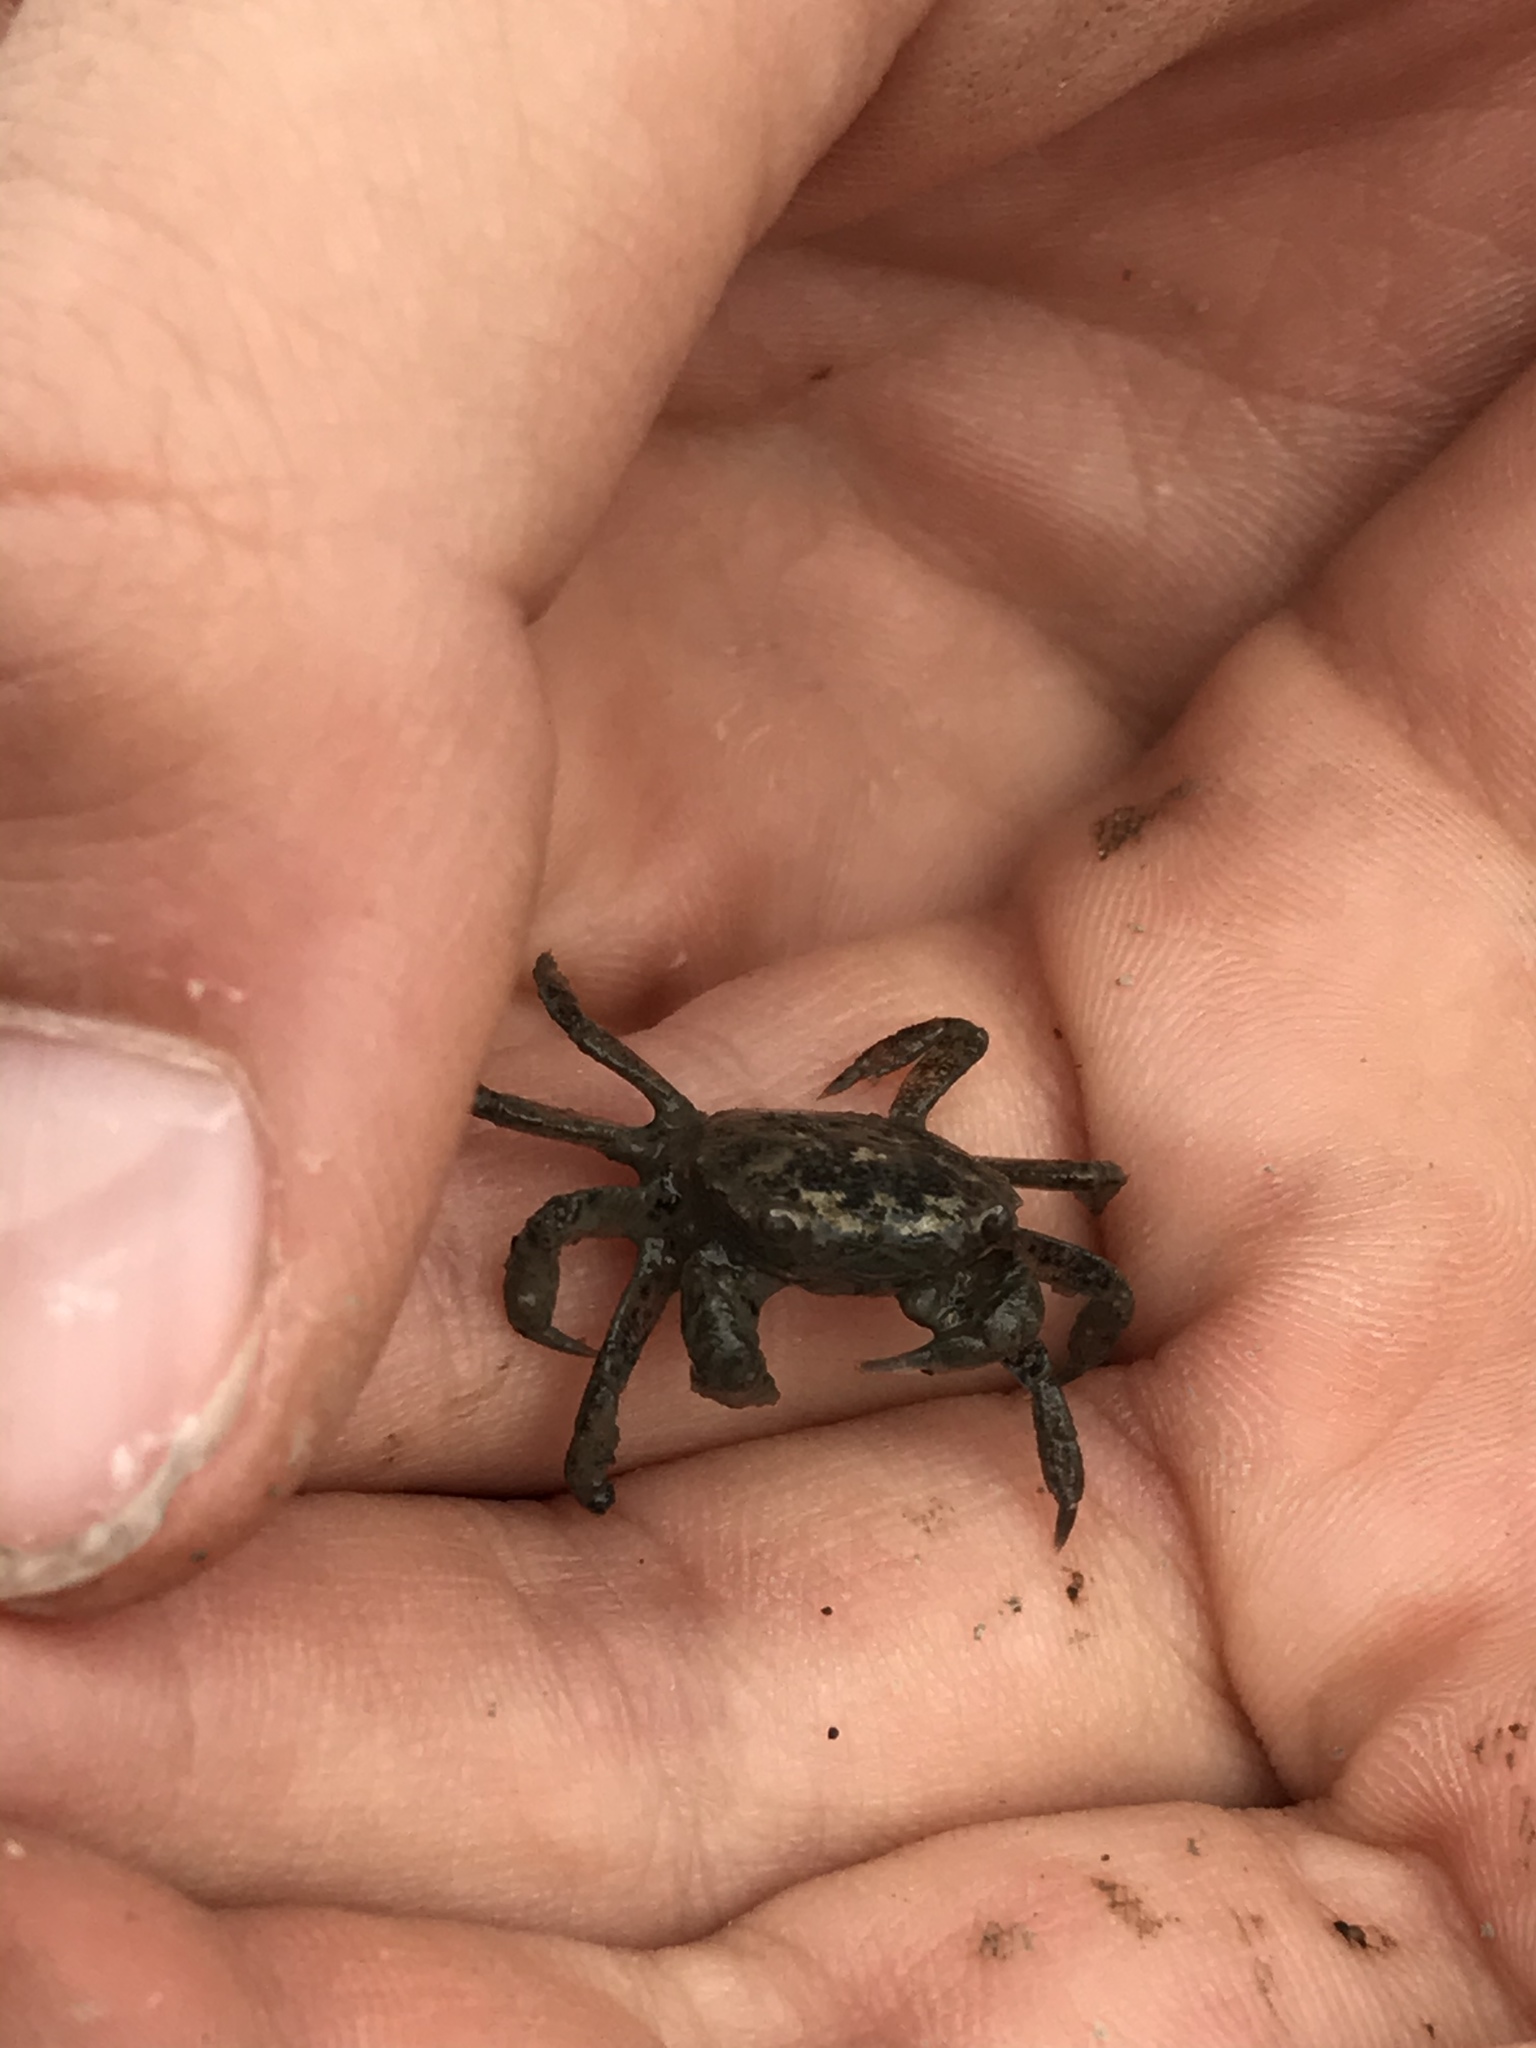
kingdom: Animalia
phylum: Arthropoda
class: Malacostraca
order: Decapoda
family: Varunidae
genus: Hemigrapsus
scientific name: Hemigrapsus oregonensis
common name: Yellow shore crab
